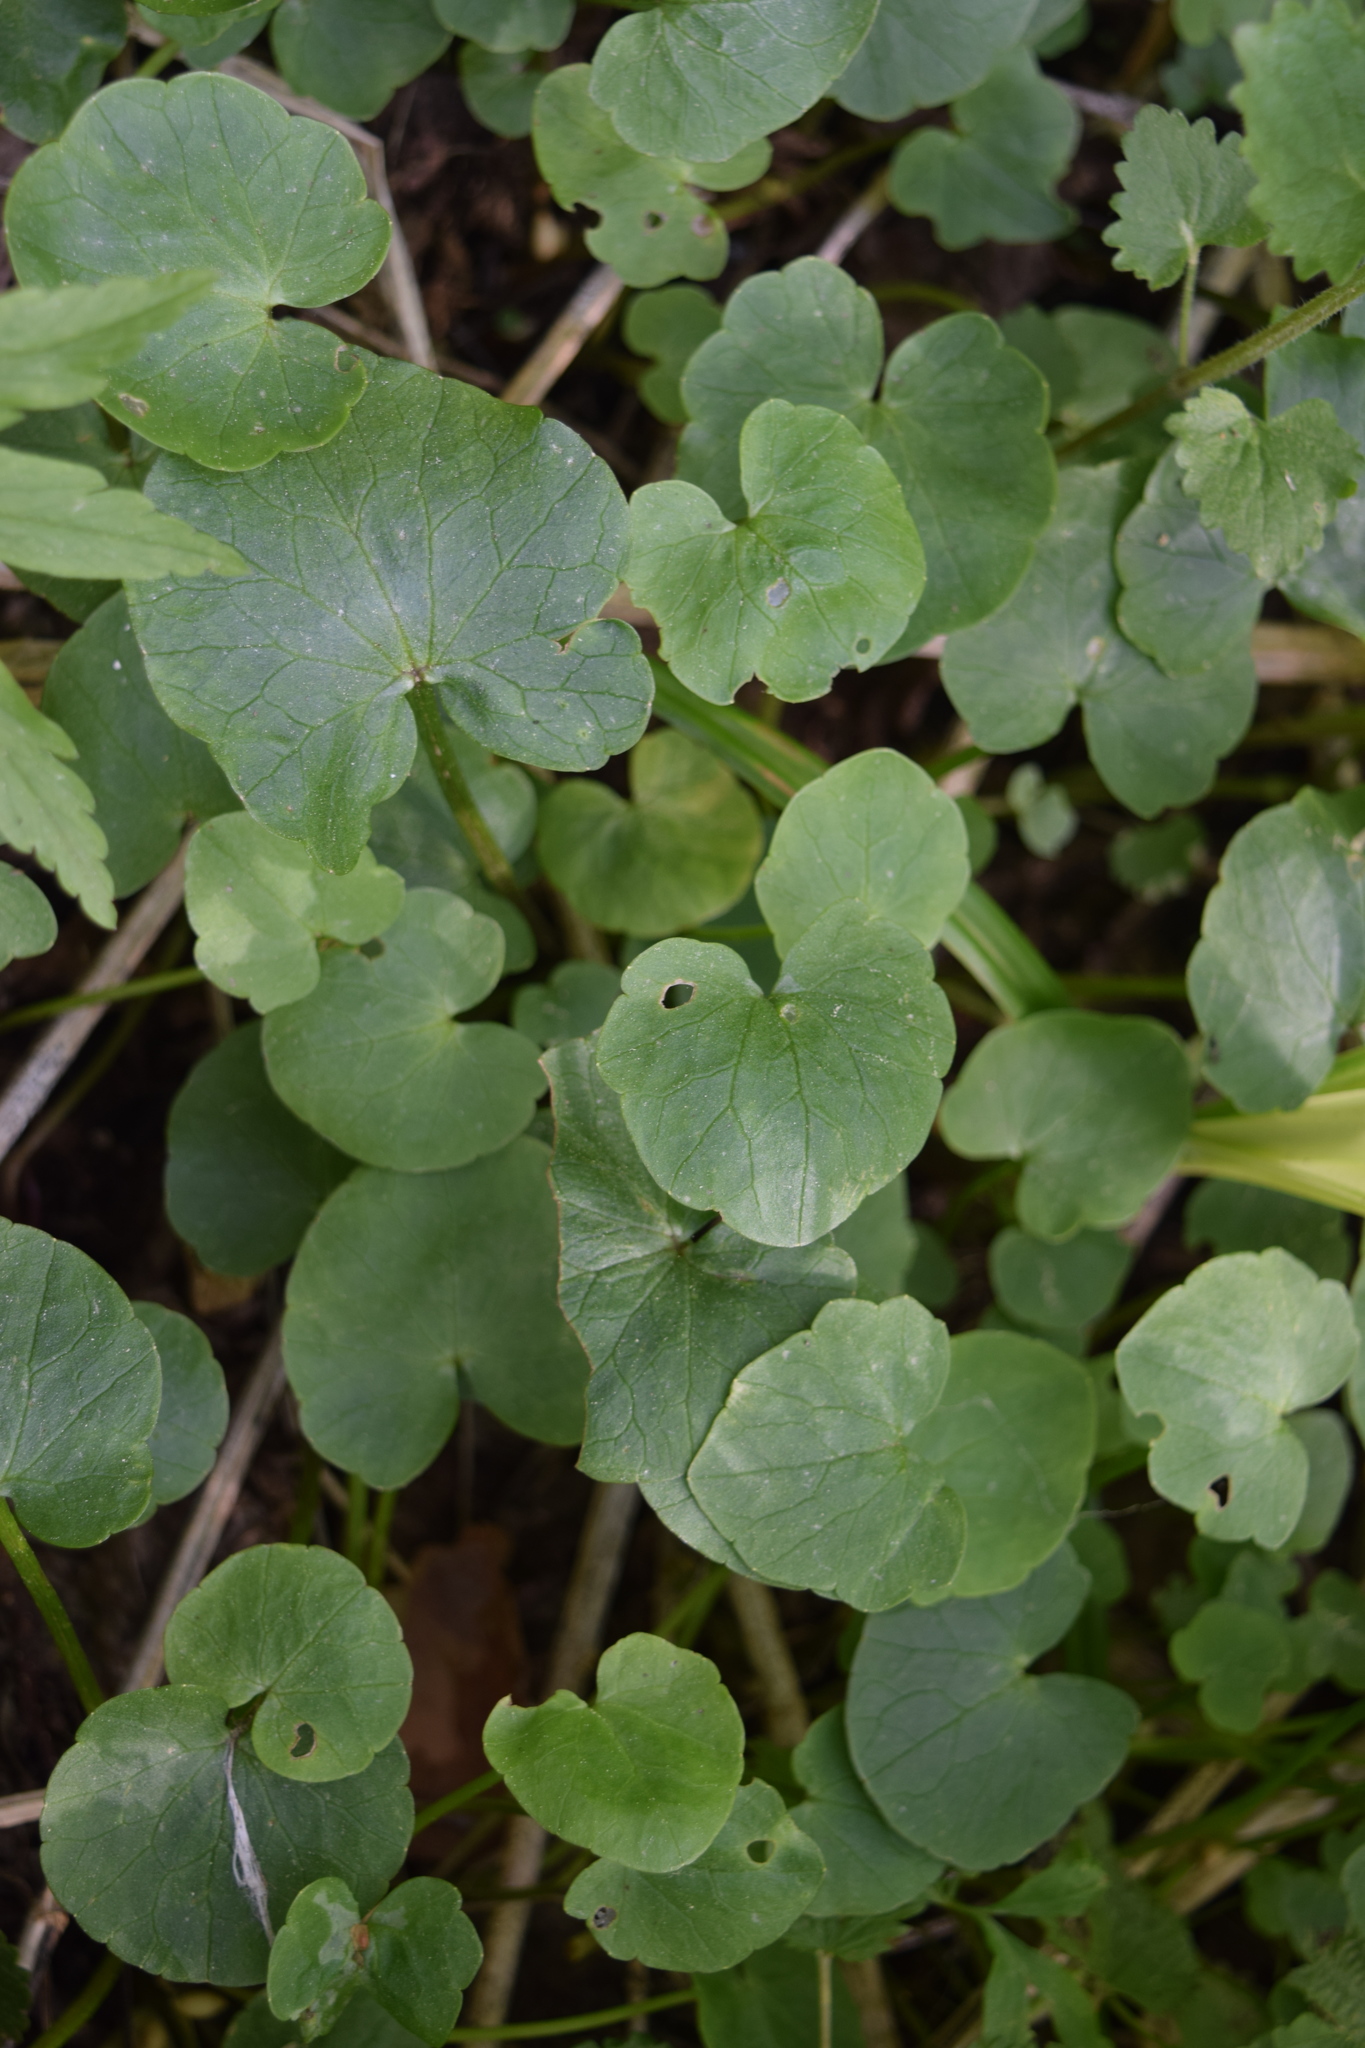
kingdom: Plantae
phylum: Tracheophyta
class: Magnoliopsida
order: Ranunculales
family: Ranunculaceae
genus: Ficaria
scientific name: Ficaria verna
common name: Lesser celandine
